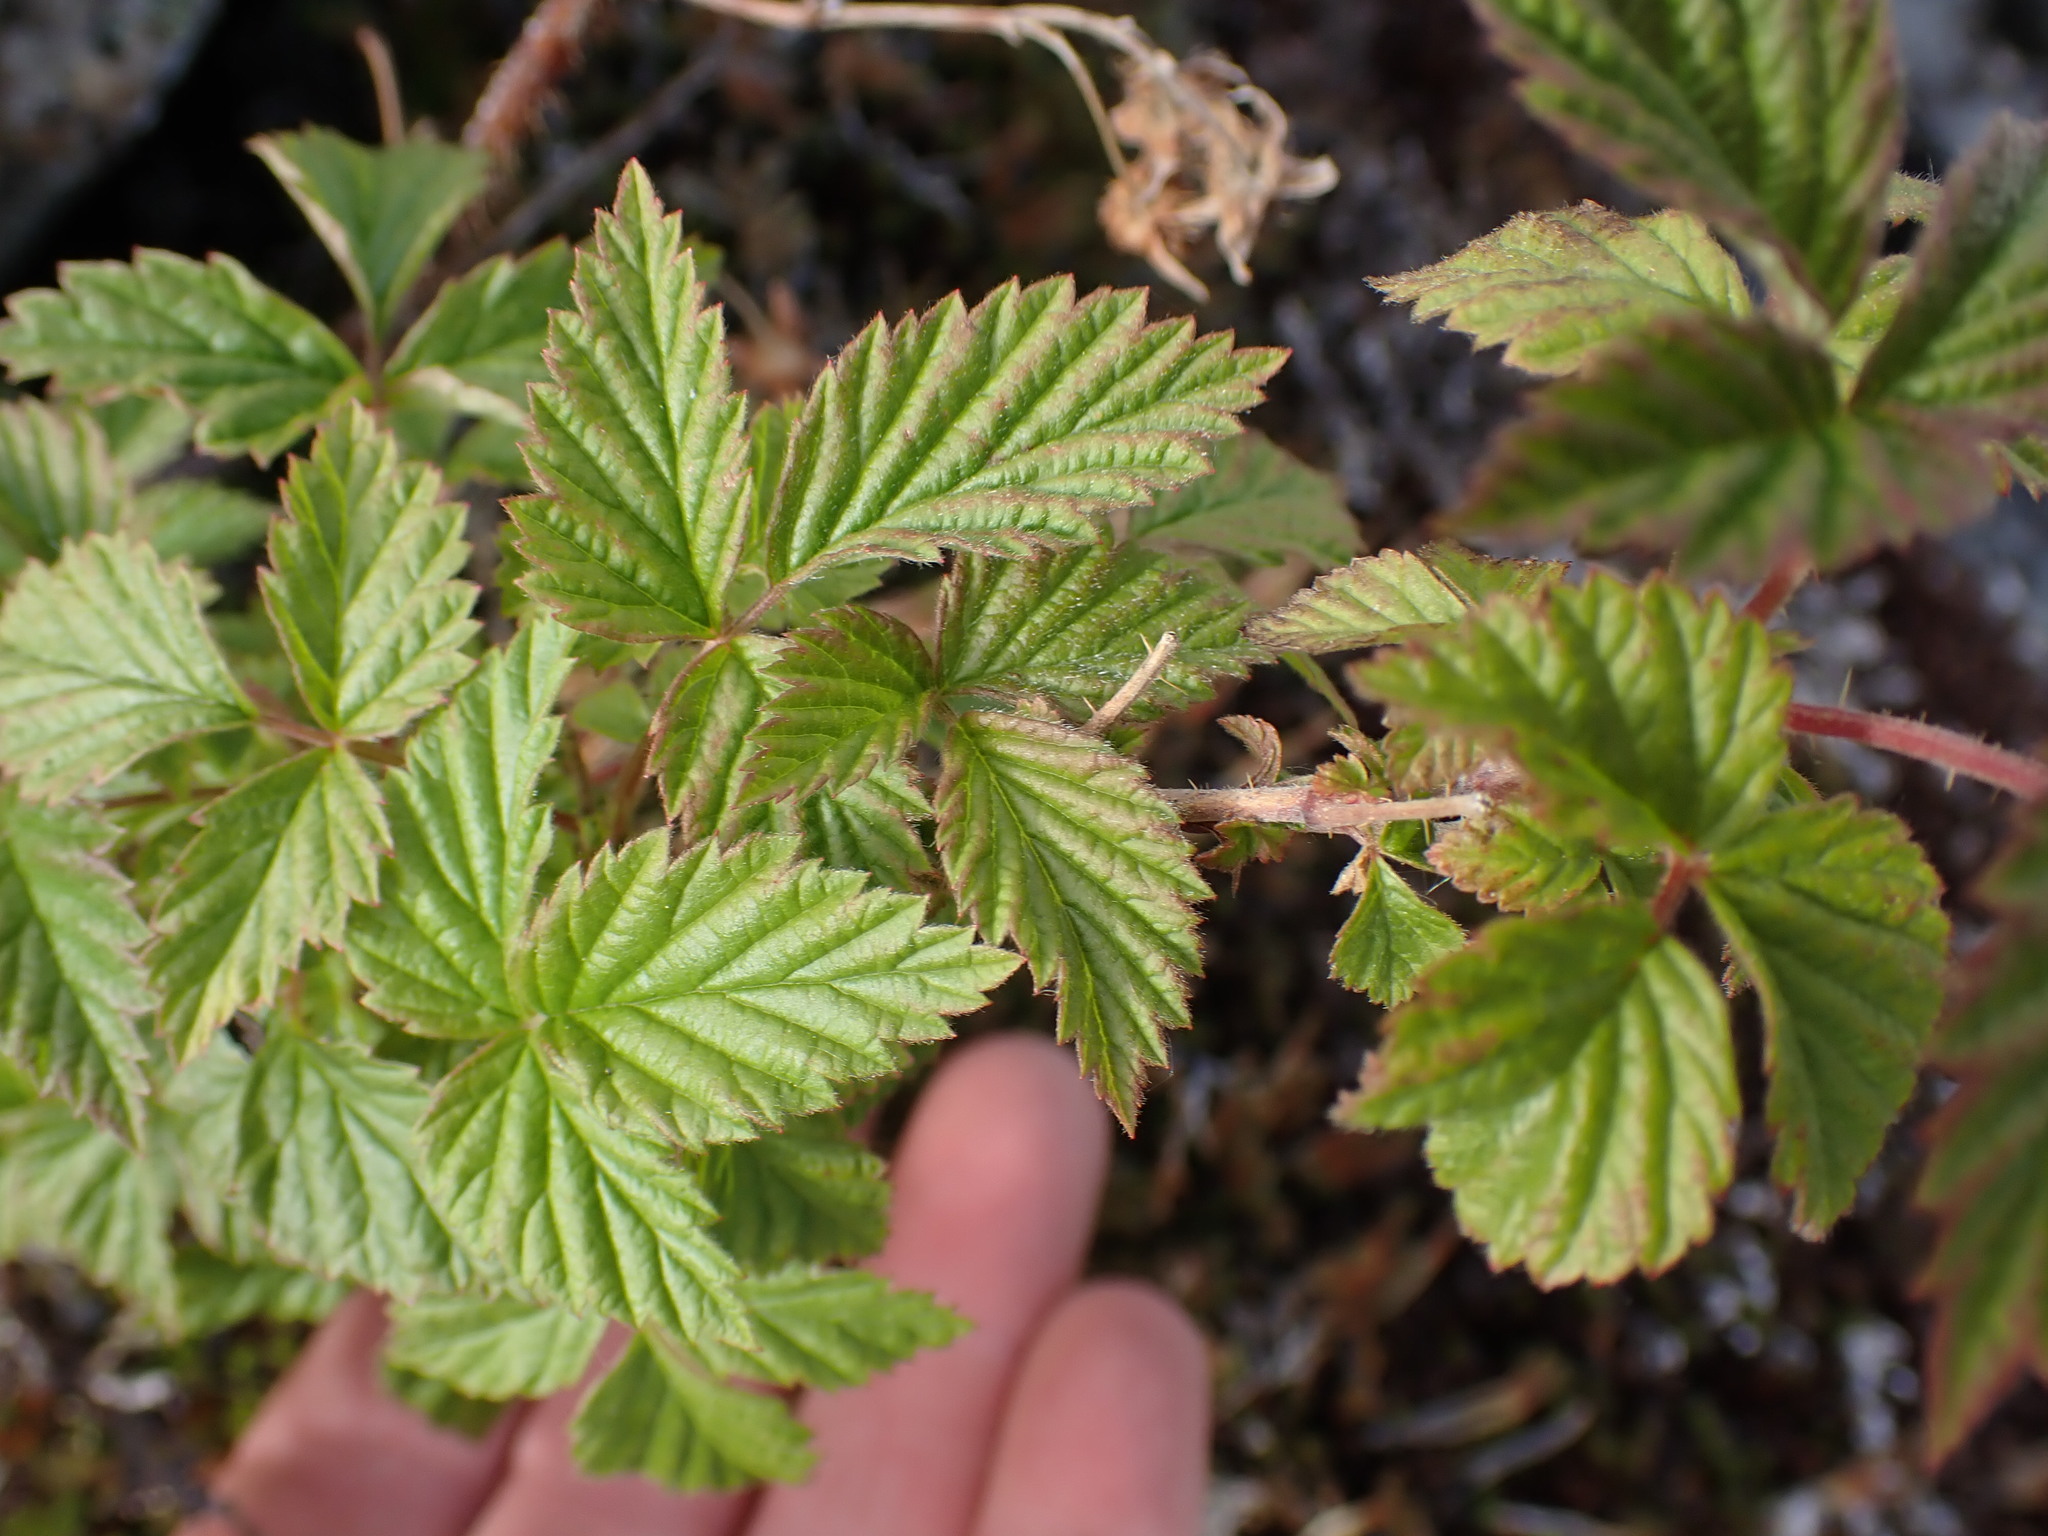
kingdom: Plantae
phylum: Tracheophyta
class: Magnoliopsida
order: Rosales
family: Rosaceae
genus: Rubus
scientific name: Rubus idaeus
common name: Raspberry
